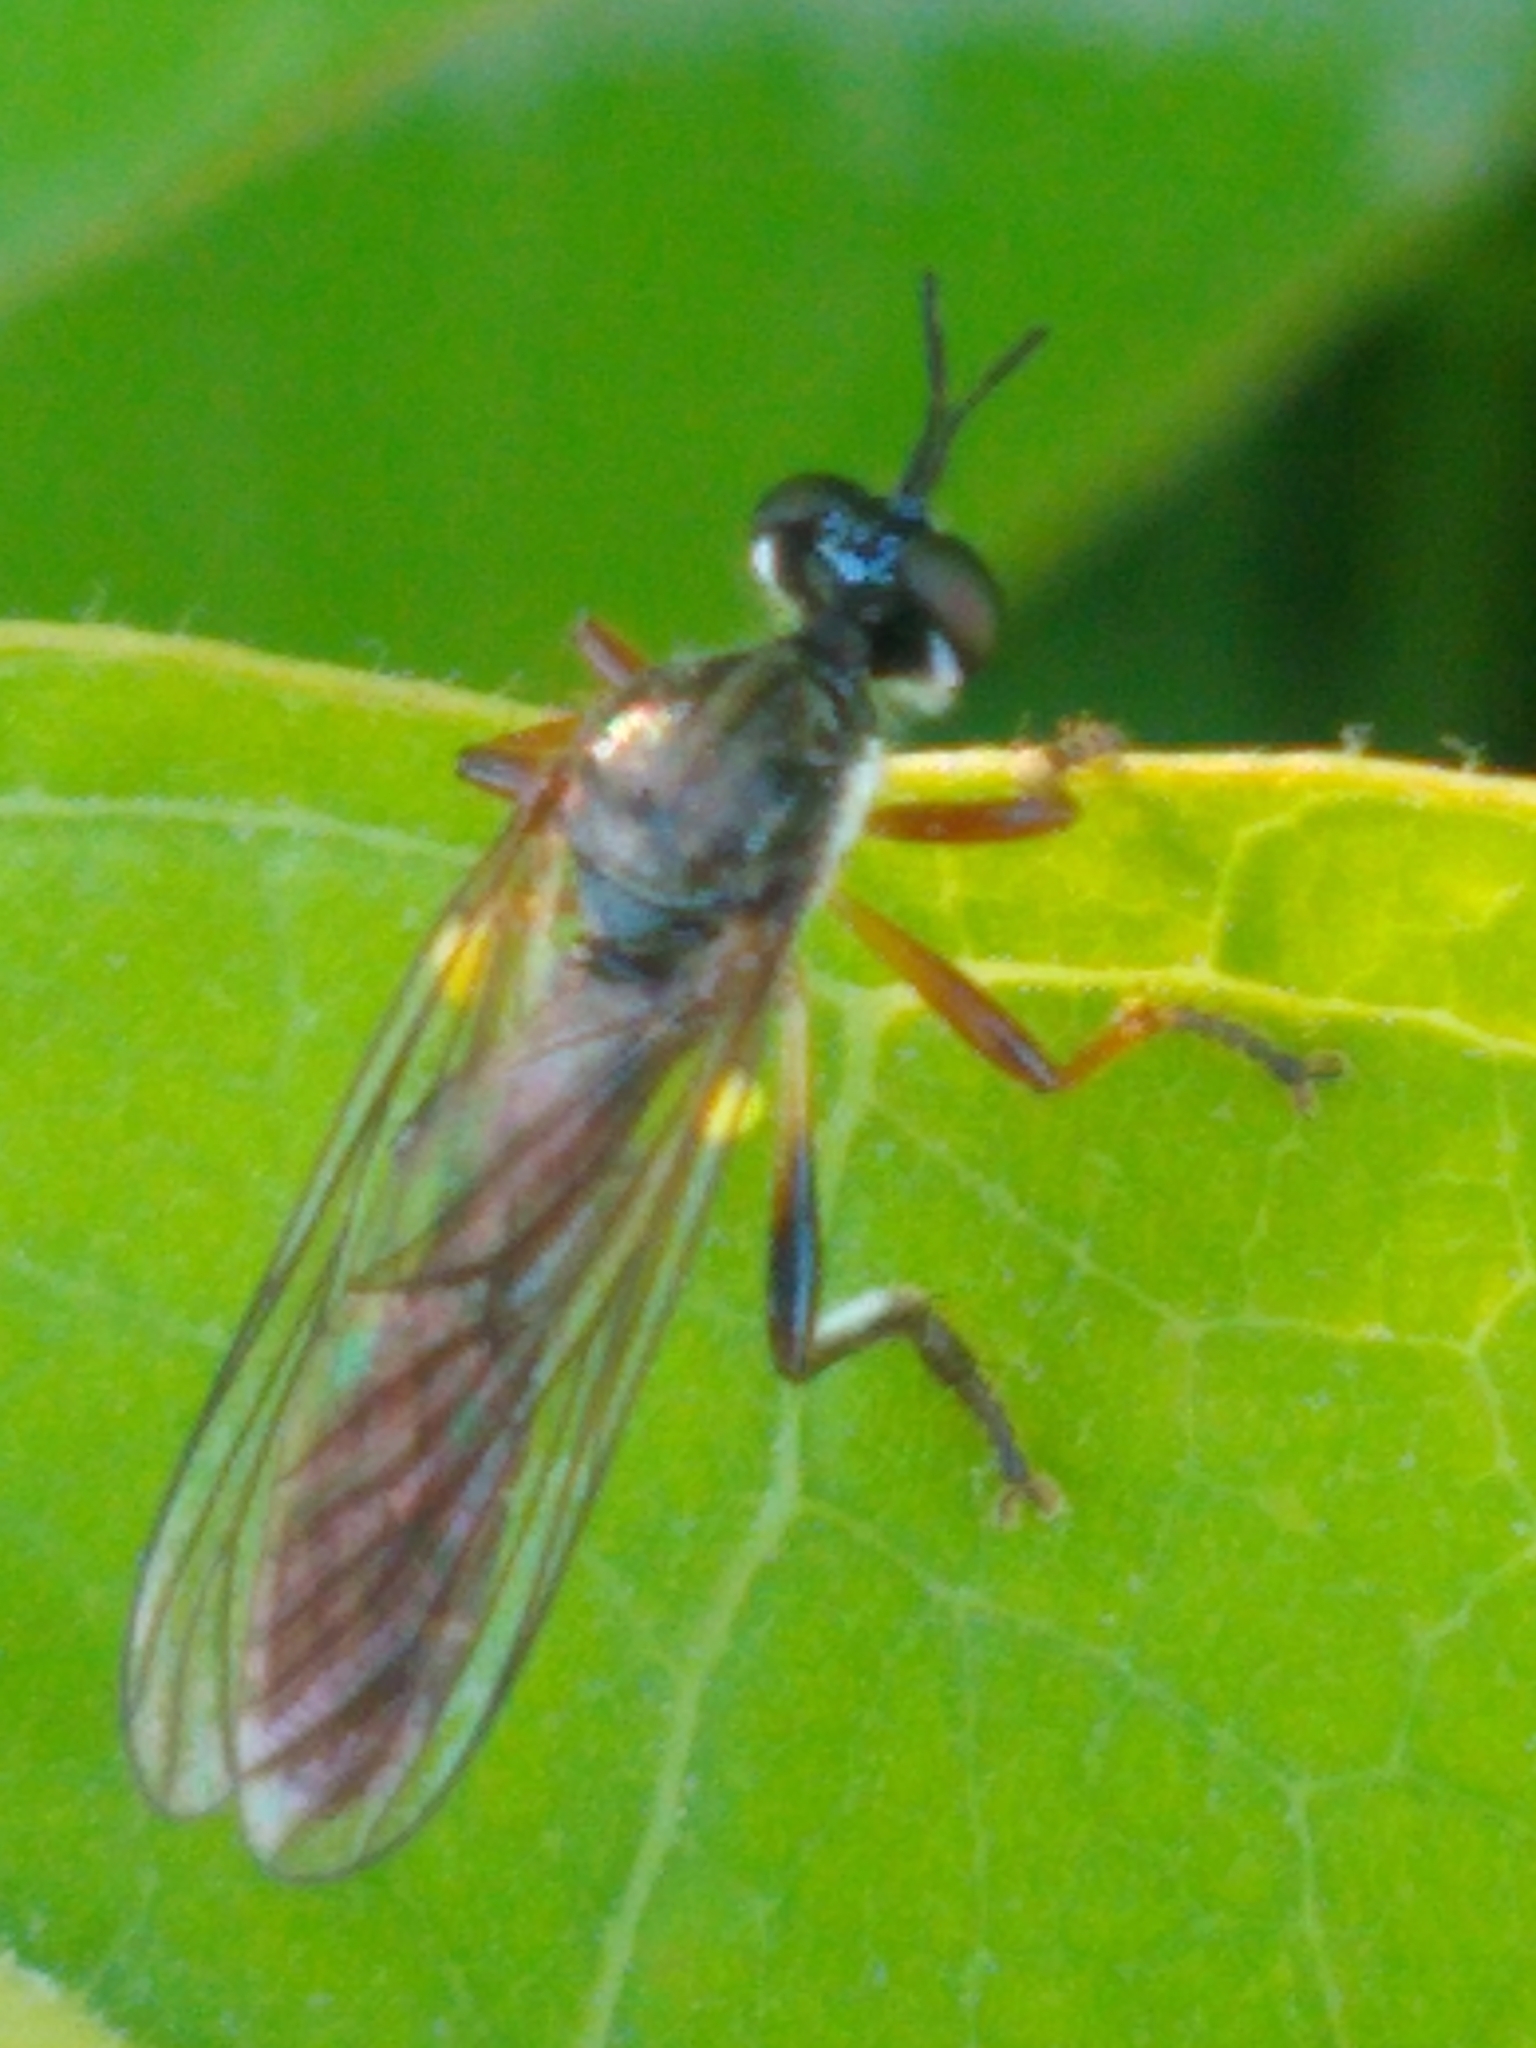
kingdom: Animalia
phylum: Arthropoda
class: Insecta
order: Diptera
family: Asilidae
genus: Dioctria
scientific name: Dioctria hyalipennis
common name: Stripe-legged robberfly
